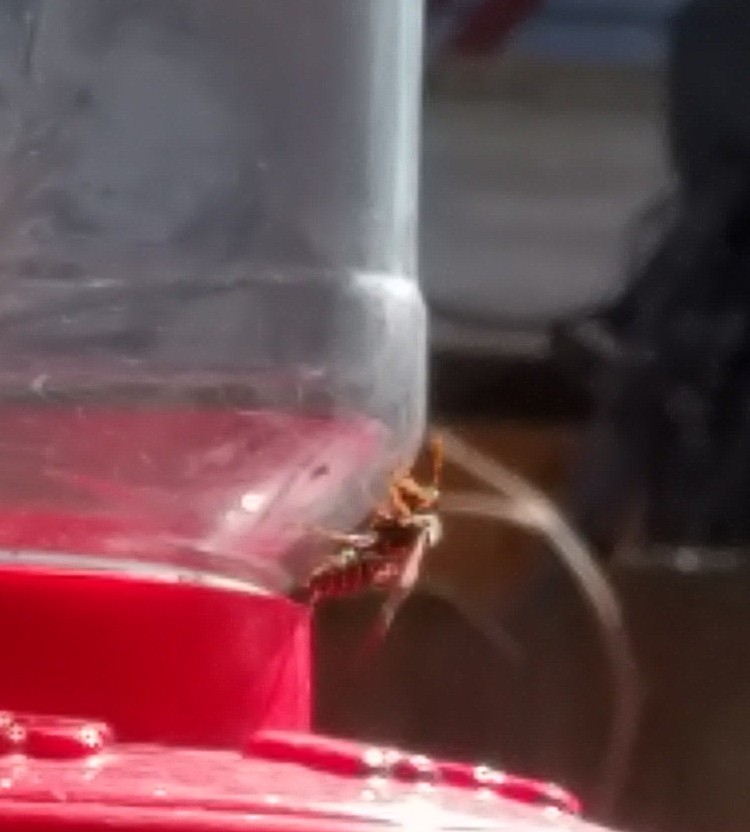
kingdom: Animalia
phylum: Arthropoda
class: Insecta
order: Hymenoptera
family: Eumenidae
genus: Polistes
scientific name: Polistes dominula
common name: Paper wasp
